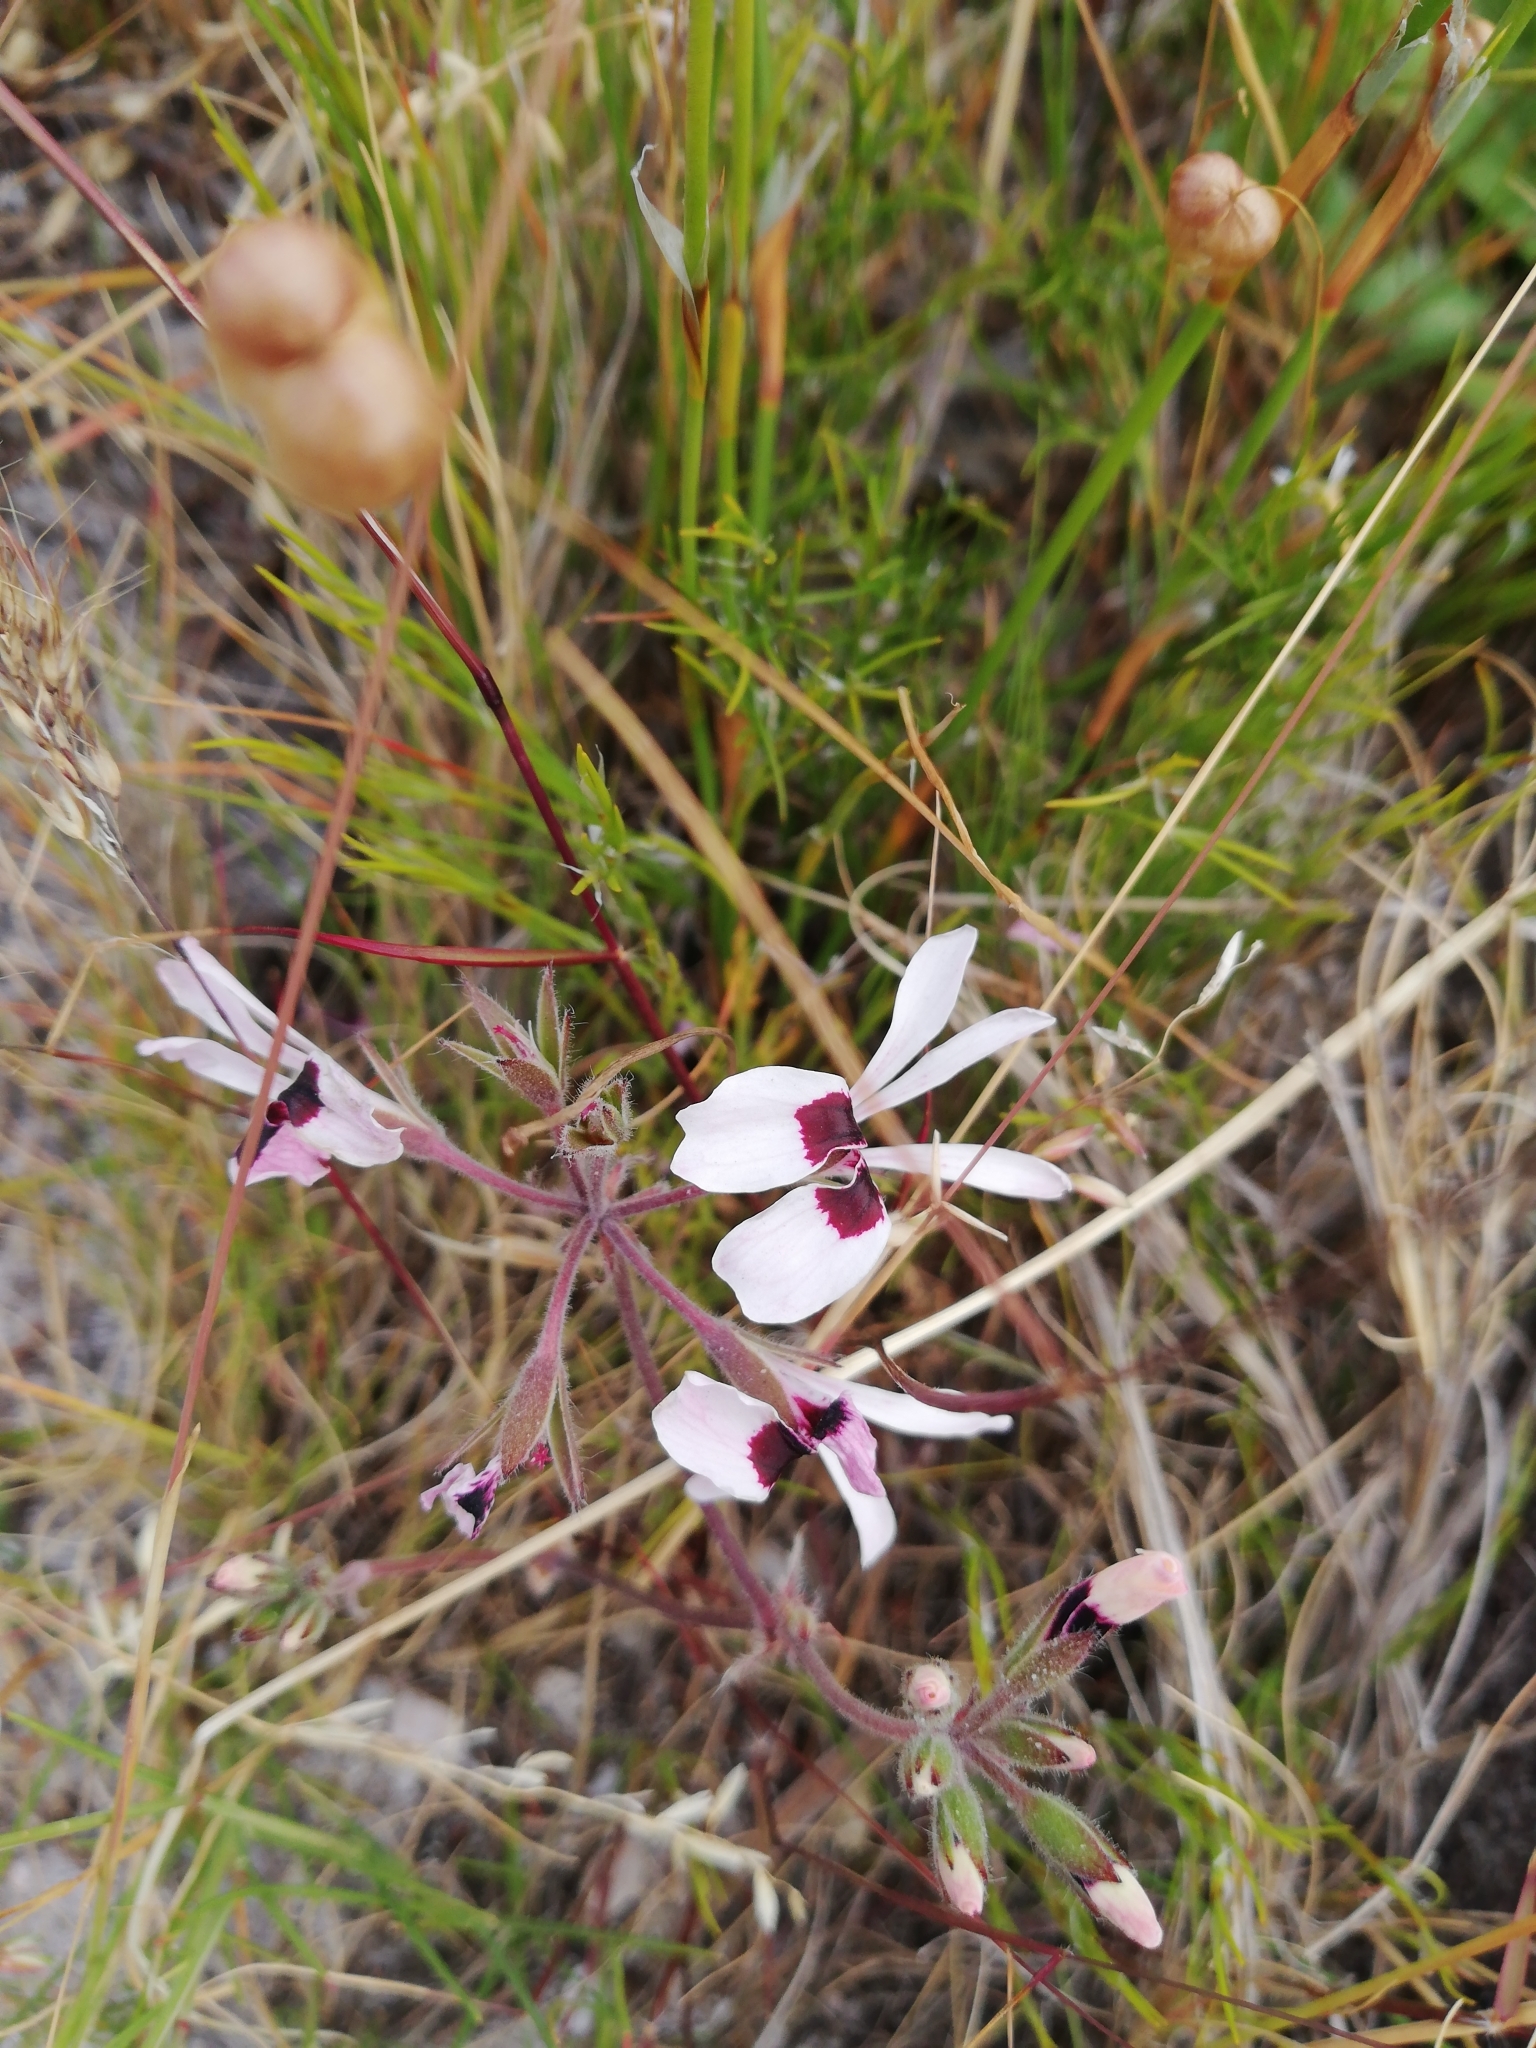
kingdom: Plantae
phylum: Tracheophyta
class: Magnoliopsida
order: Geraniales
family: Geraniaceae
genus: Pelargonium
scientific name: Pelargonium psammophilum
